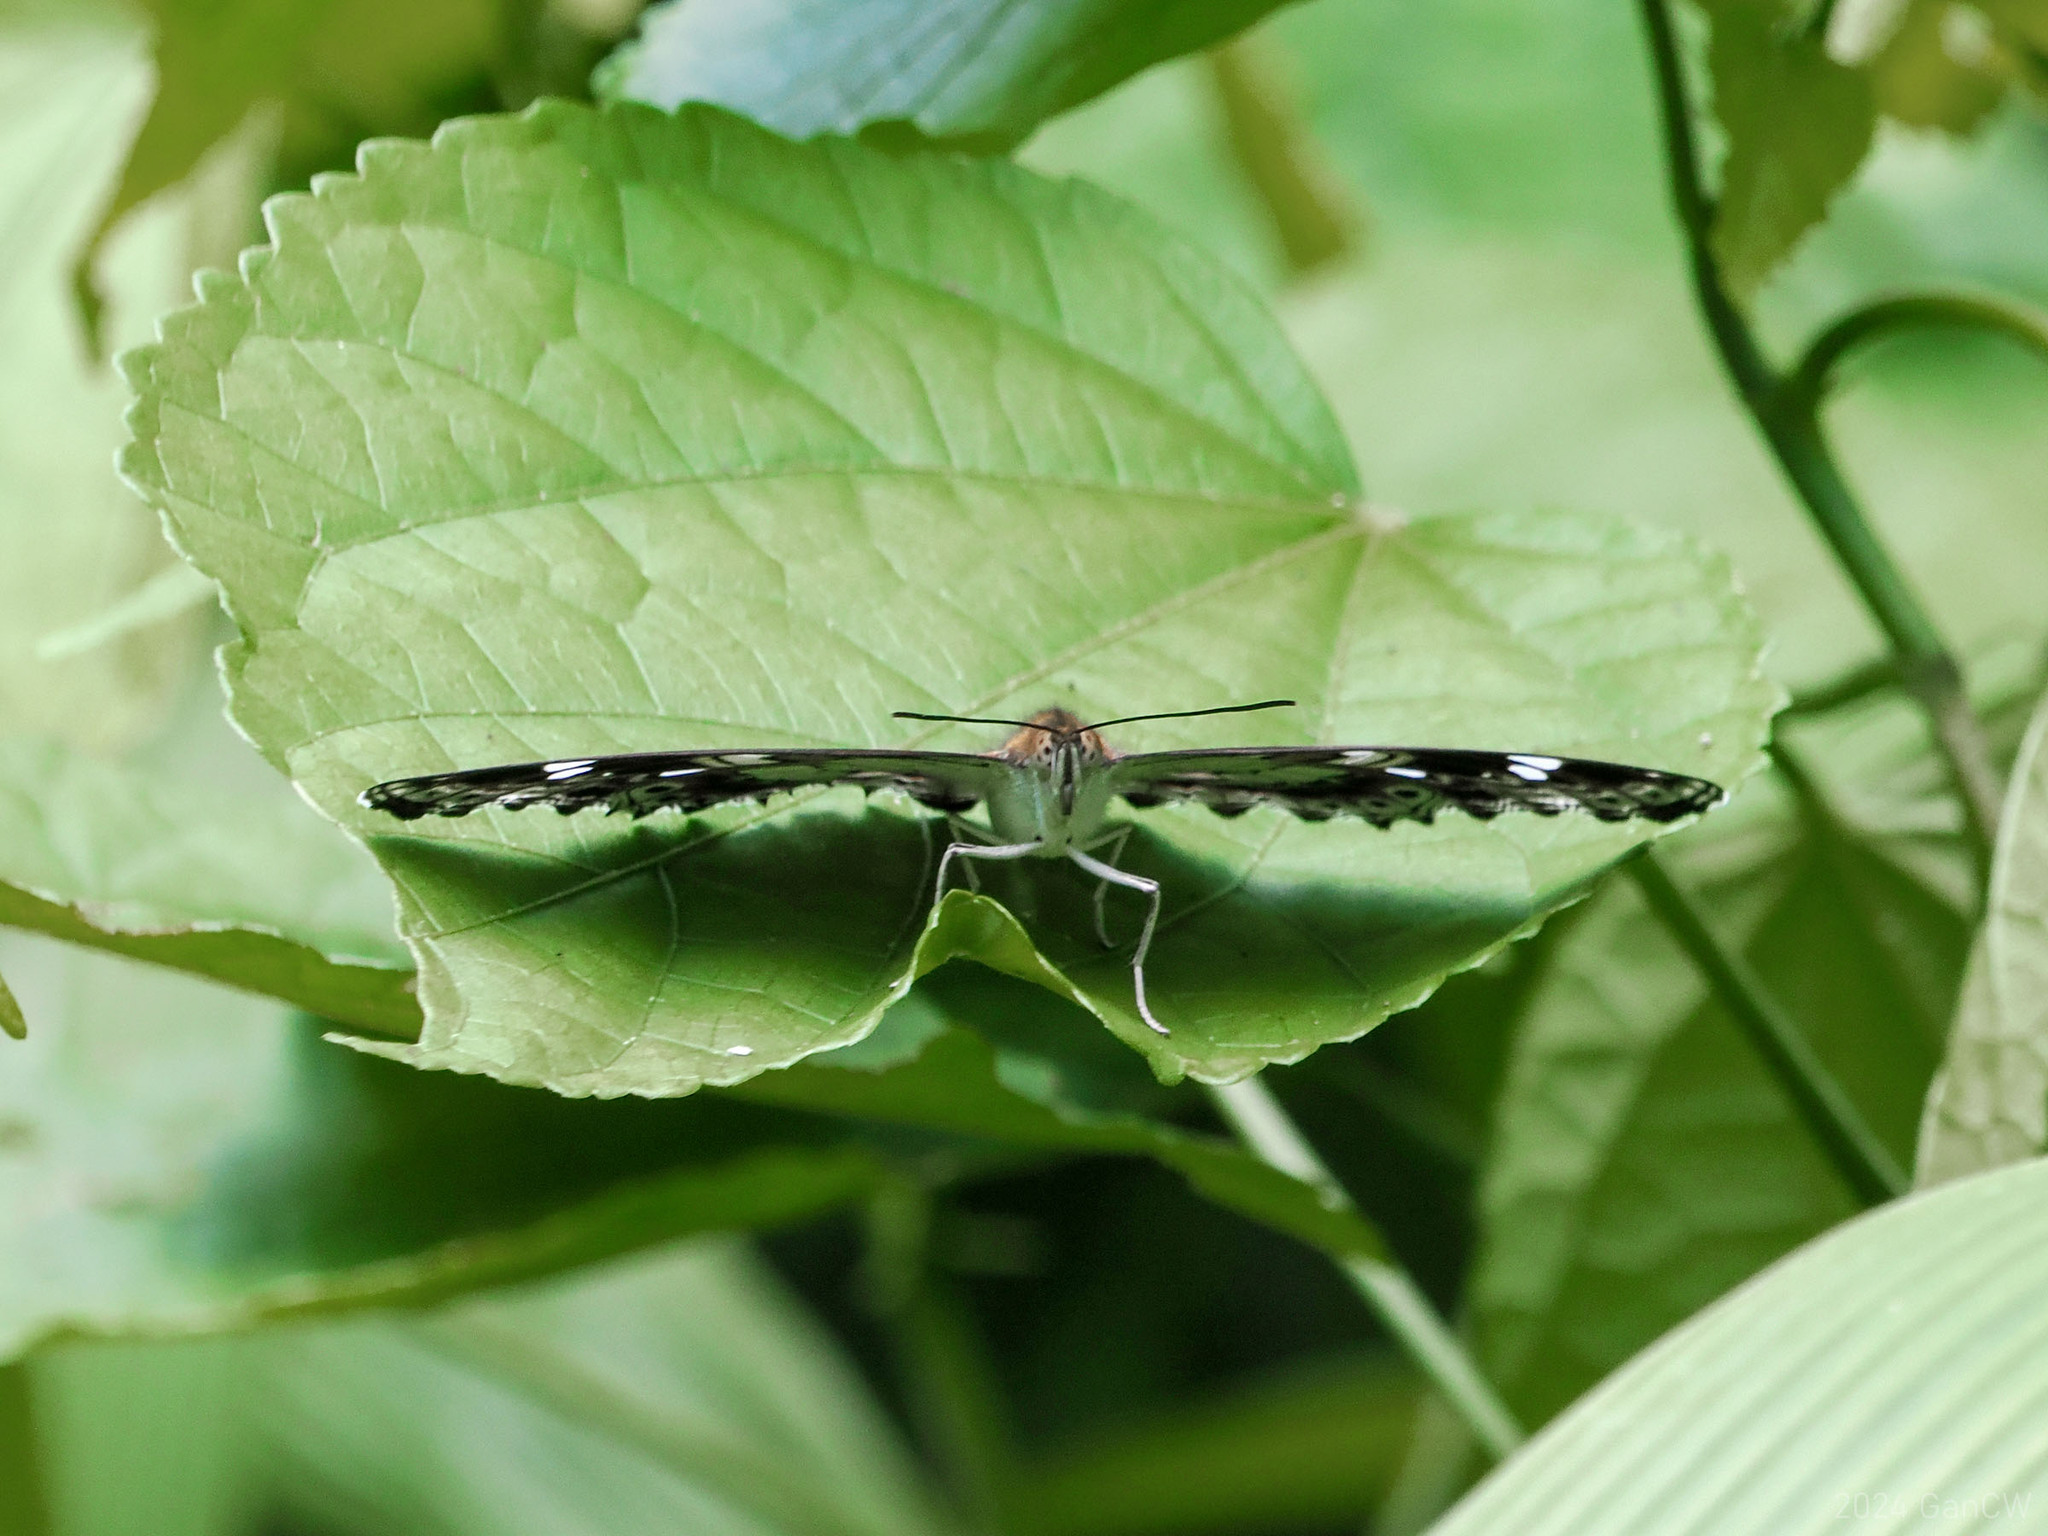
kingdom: Animalia
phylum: Arthropoda
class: Insecta
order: Lepidoptera
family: Nymphalidae
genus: Limenitis
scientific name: Limenitis Moduza pintuyana
